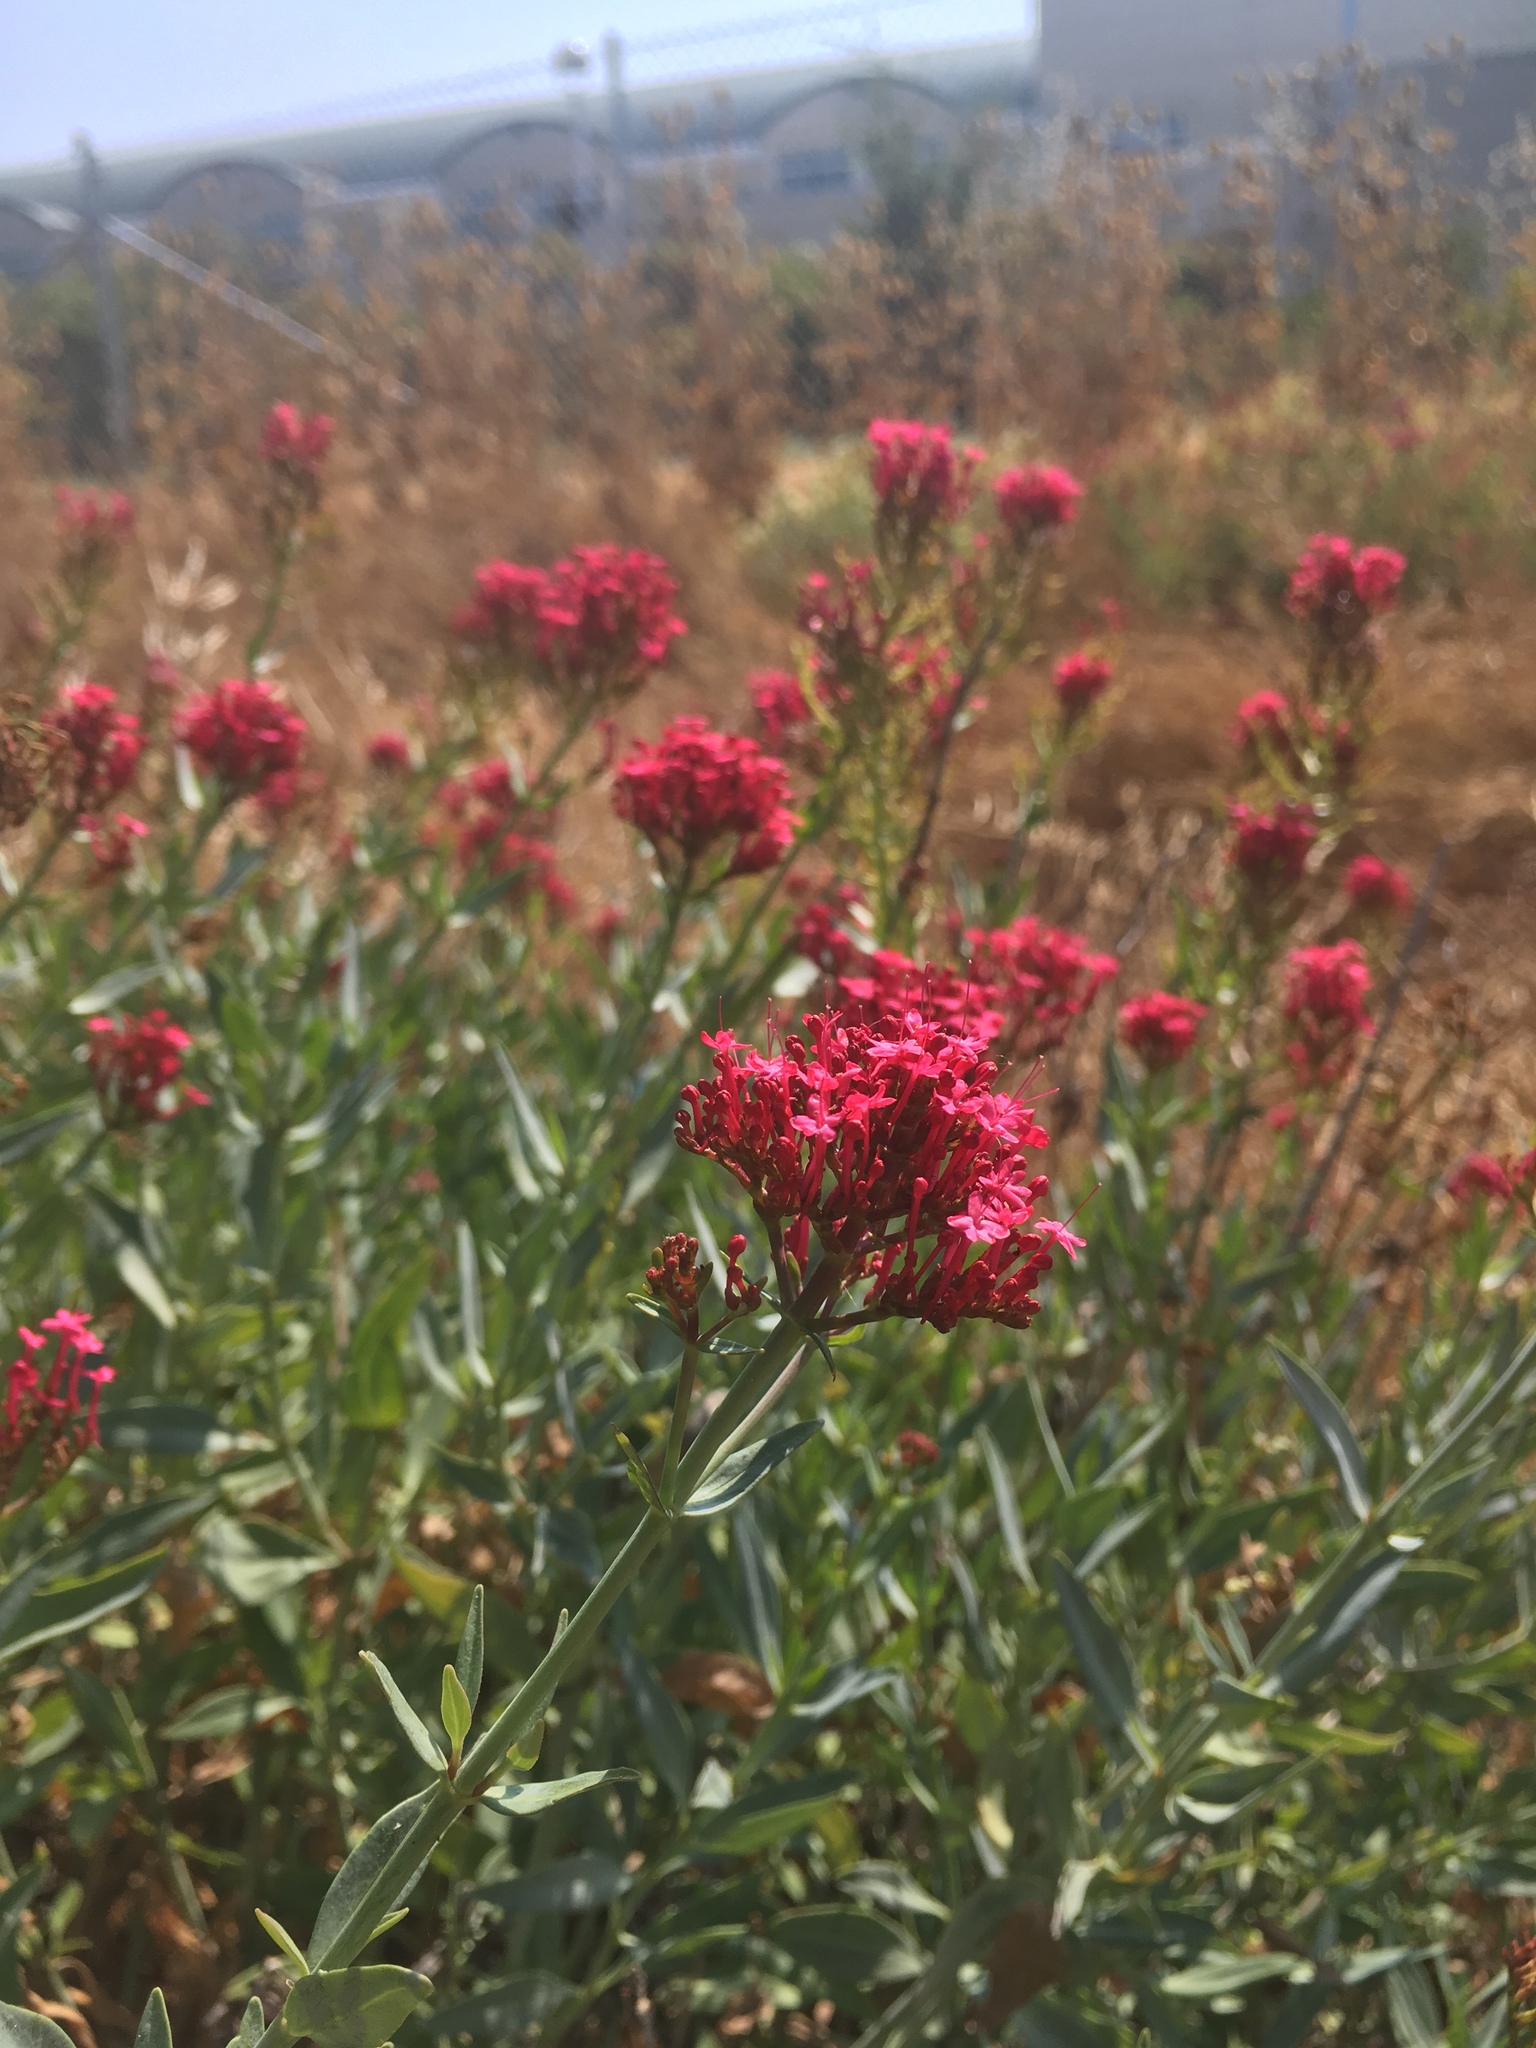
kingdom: Plantae
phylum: Tracheophyta
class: Magnoliopsida
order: Dipsacales
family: Caprifoliaceae
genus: Centranthus
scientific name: Centranthus ruber
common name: Red valerian
